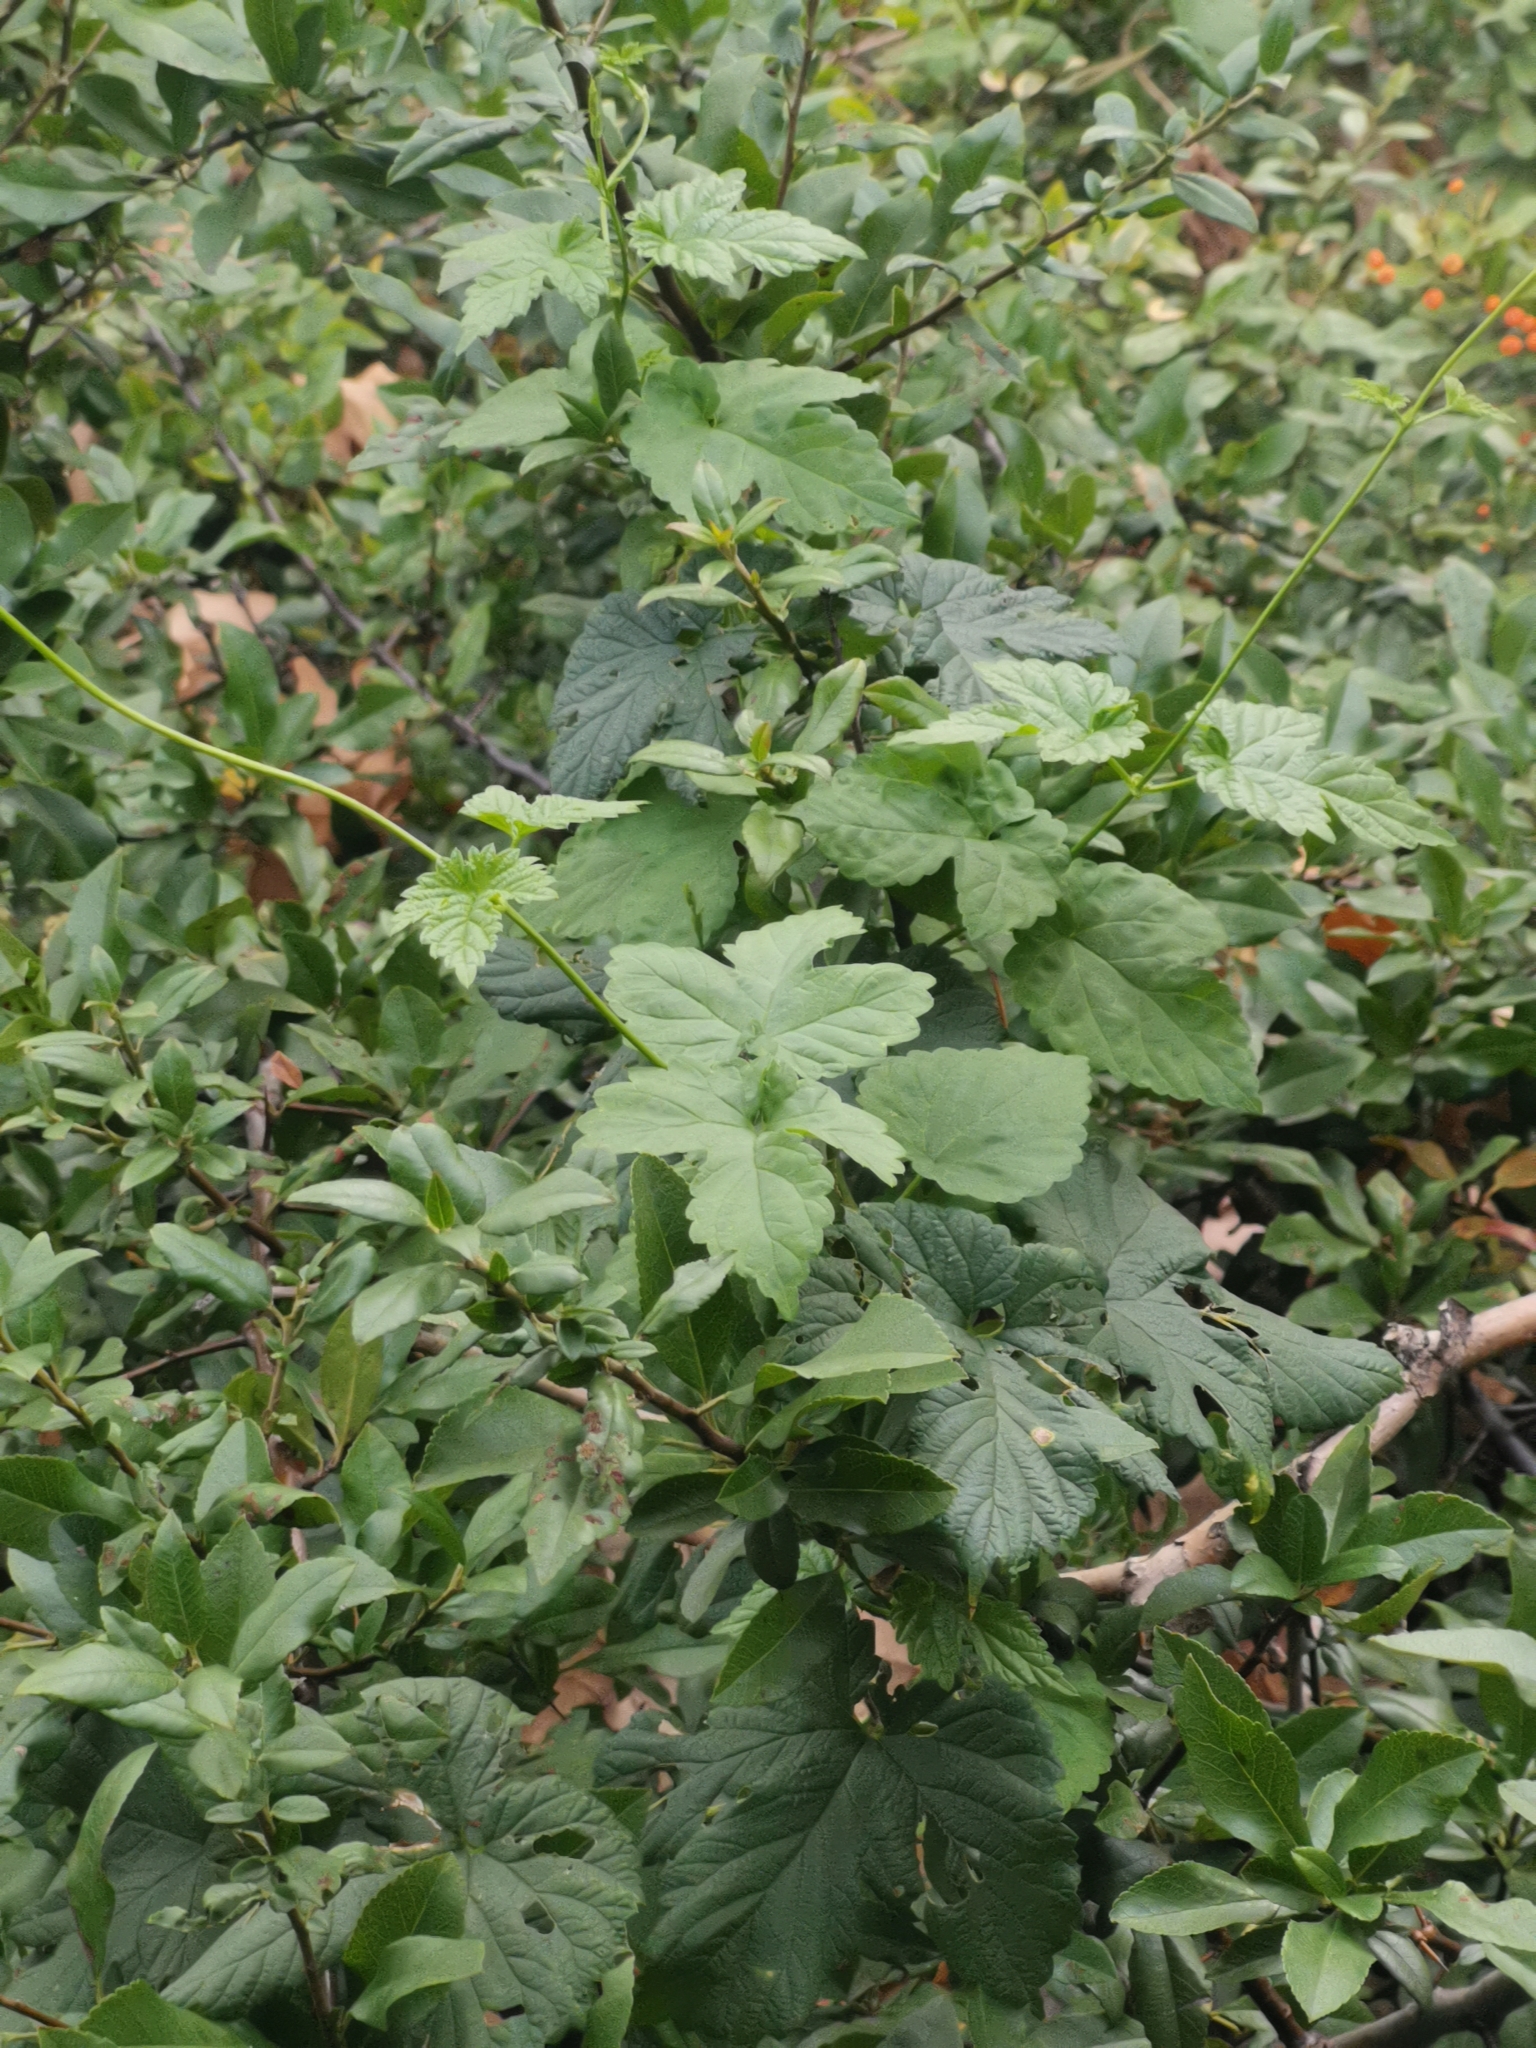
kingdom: Plantae
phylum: Tracheophyta
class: Magnoliopsida
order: Rosales
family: Cannabaceae
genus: Humulus
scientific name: Humulus lupulus
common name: Hop
